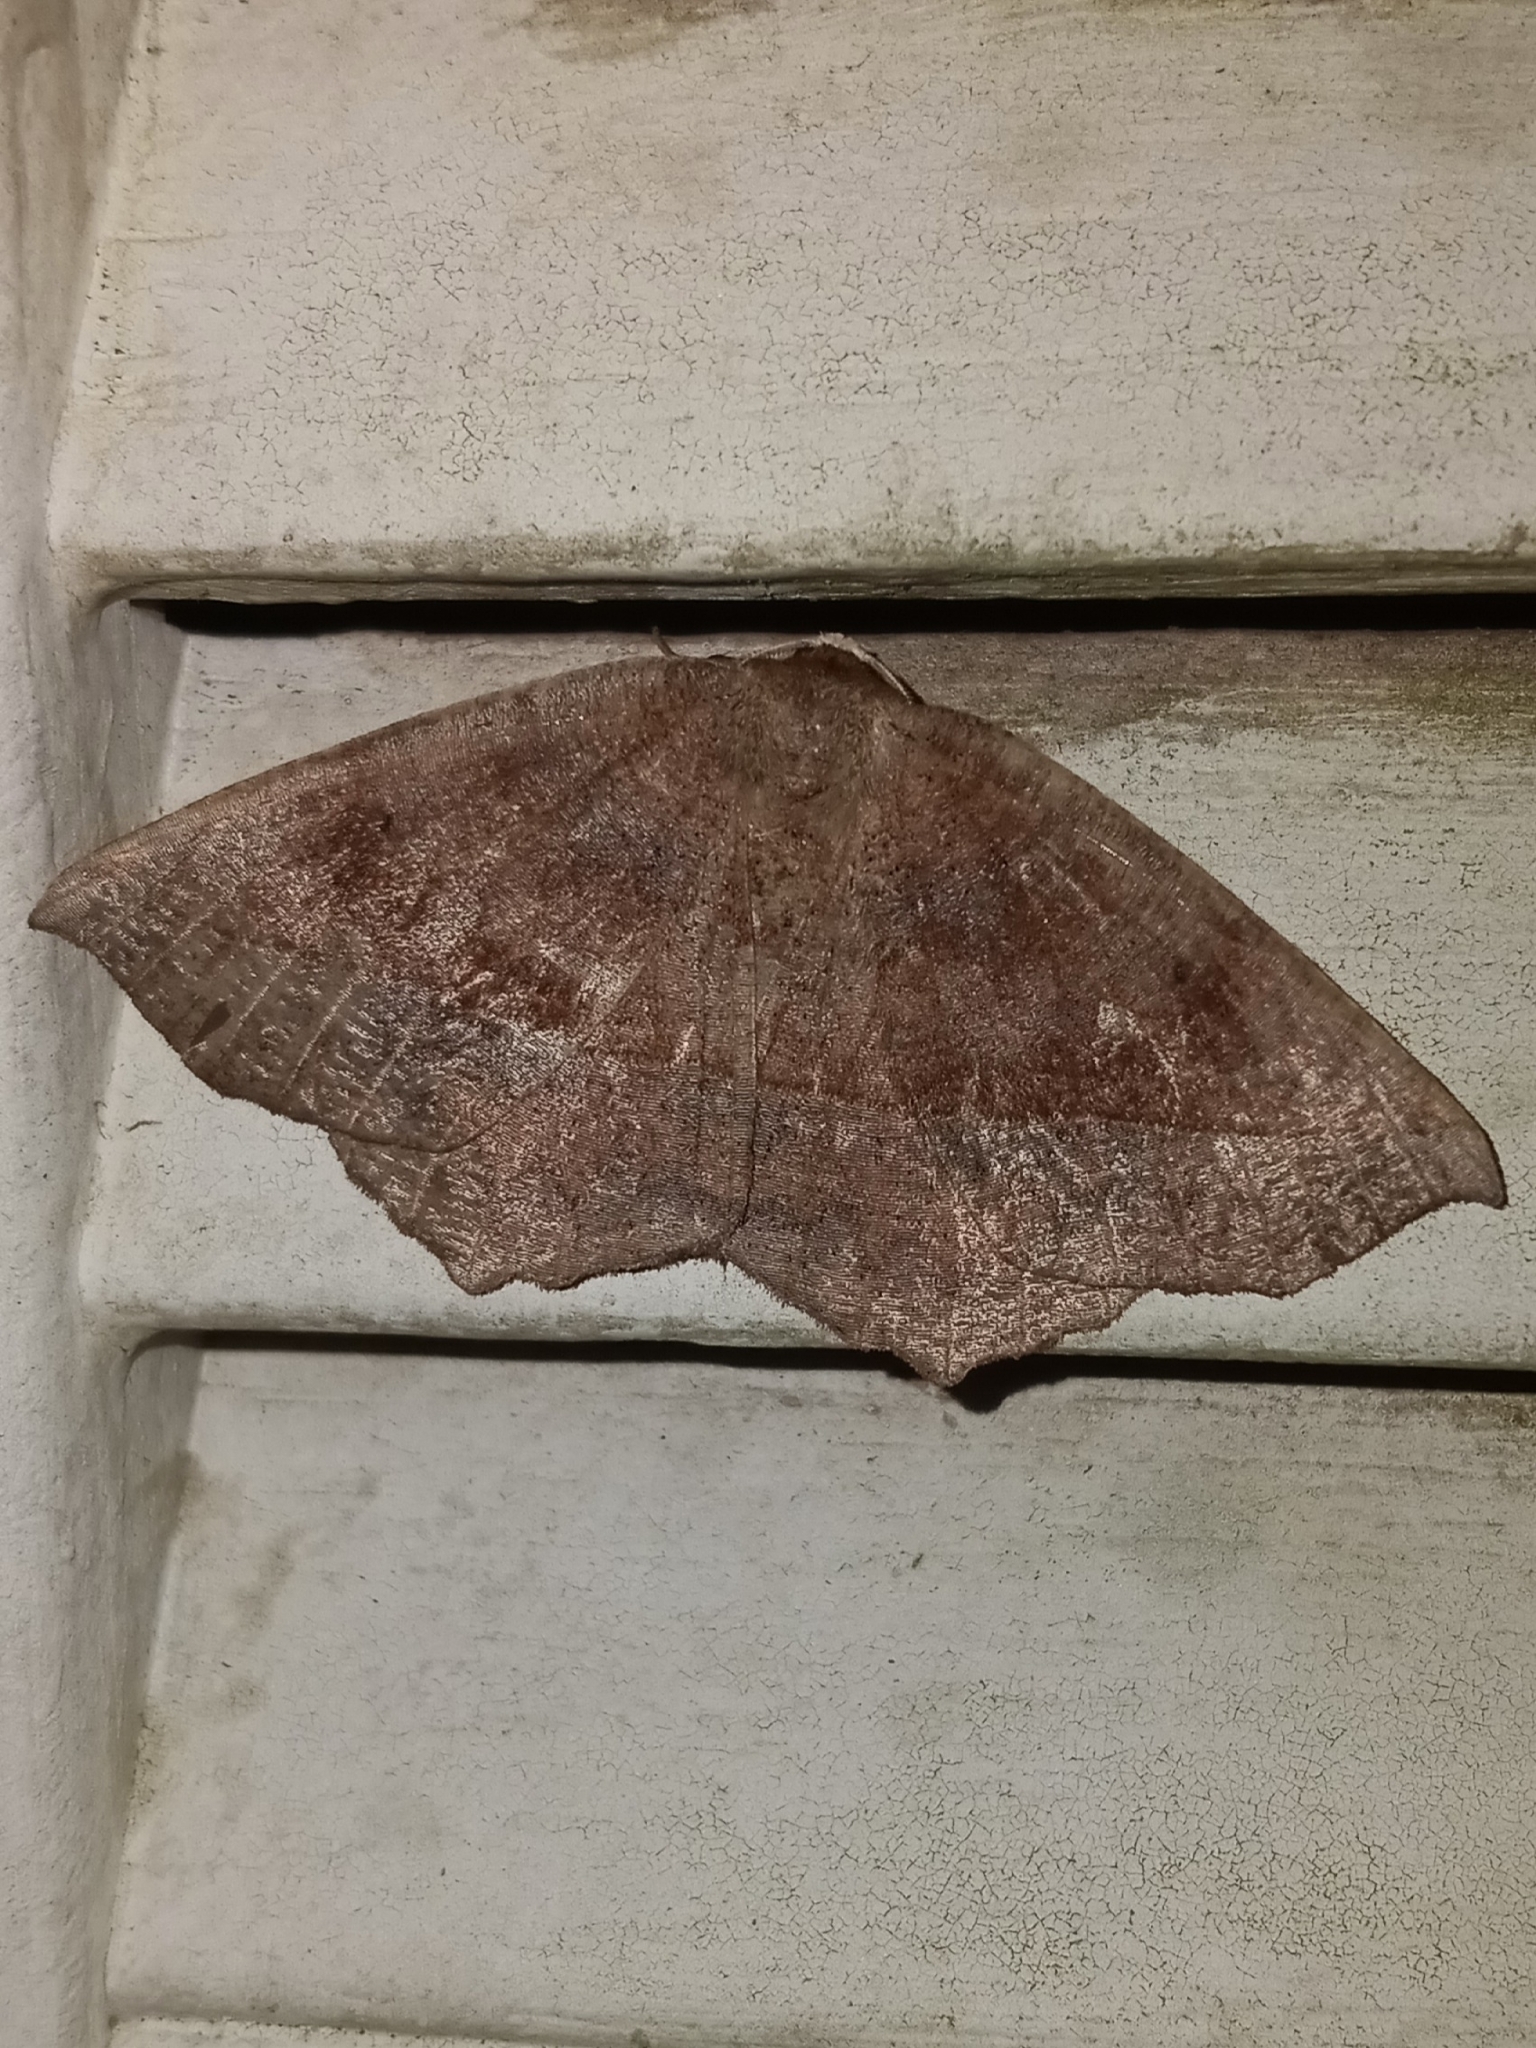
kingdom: Animalia
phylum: Arthropoda
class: Insecta
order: Lepidoptera
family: Geometridae
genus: Eutrapela
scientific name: Eutrapela clemataria
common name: Curved-toothed geometer
